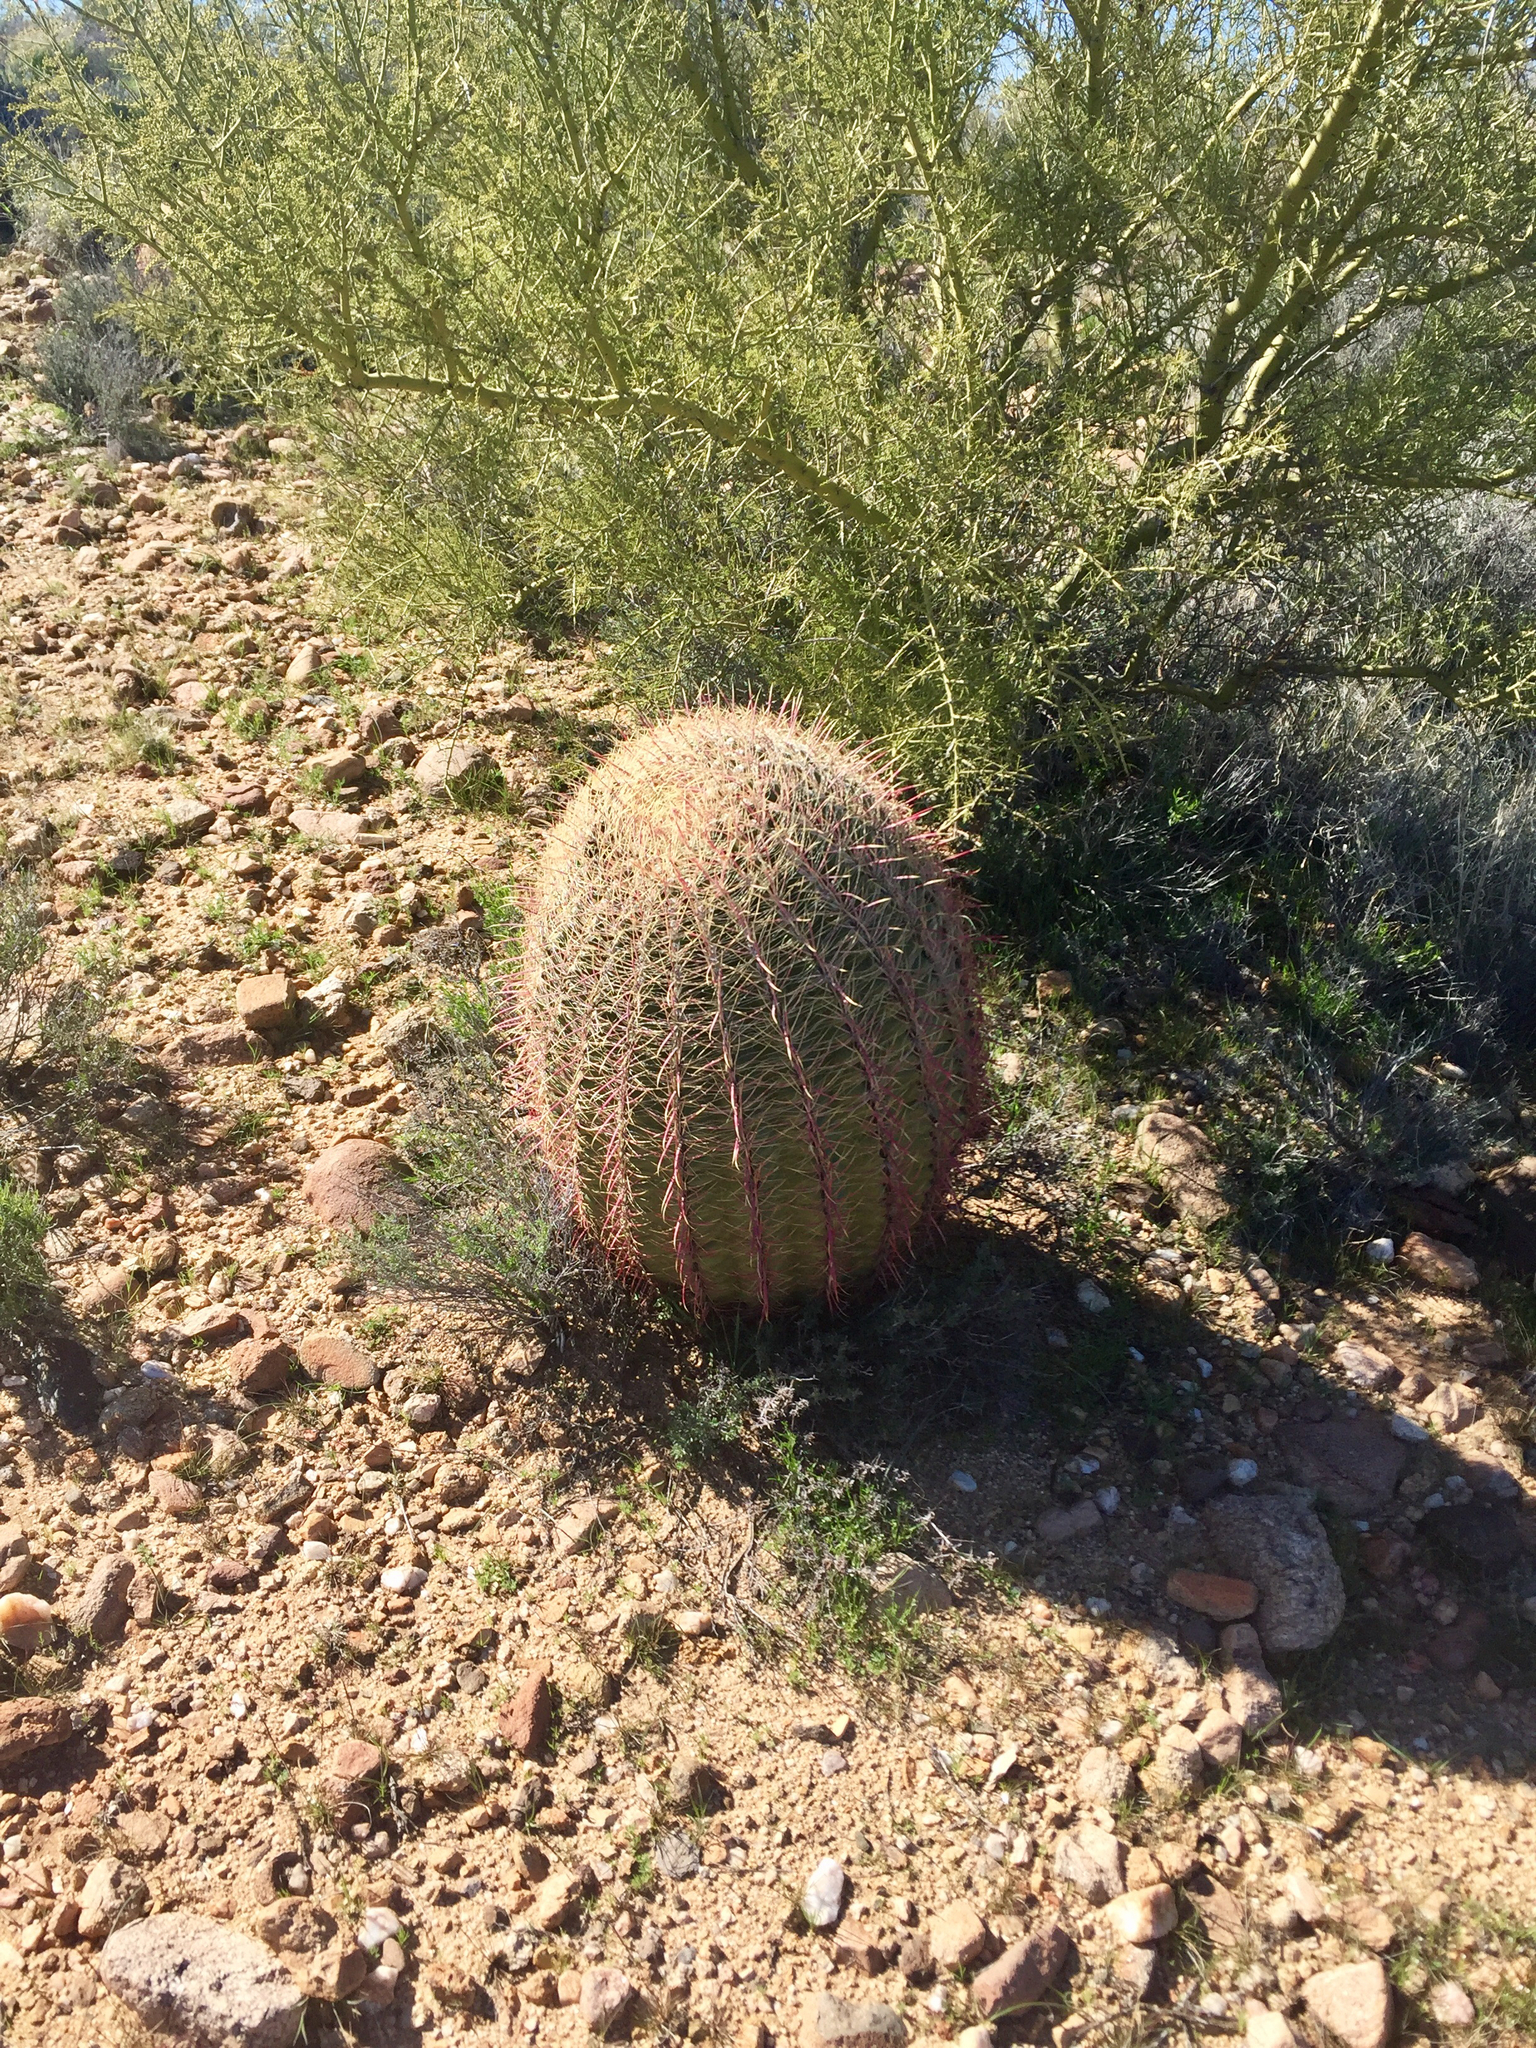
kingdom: Plantae
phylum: Tracheophyta
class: Magnoliopsida
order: Caryophyllales
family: Cactaceae
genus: Ferocactus
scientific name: Ferocactus cylindraceus
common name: California barrel cactus
